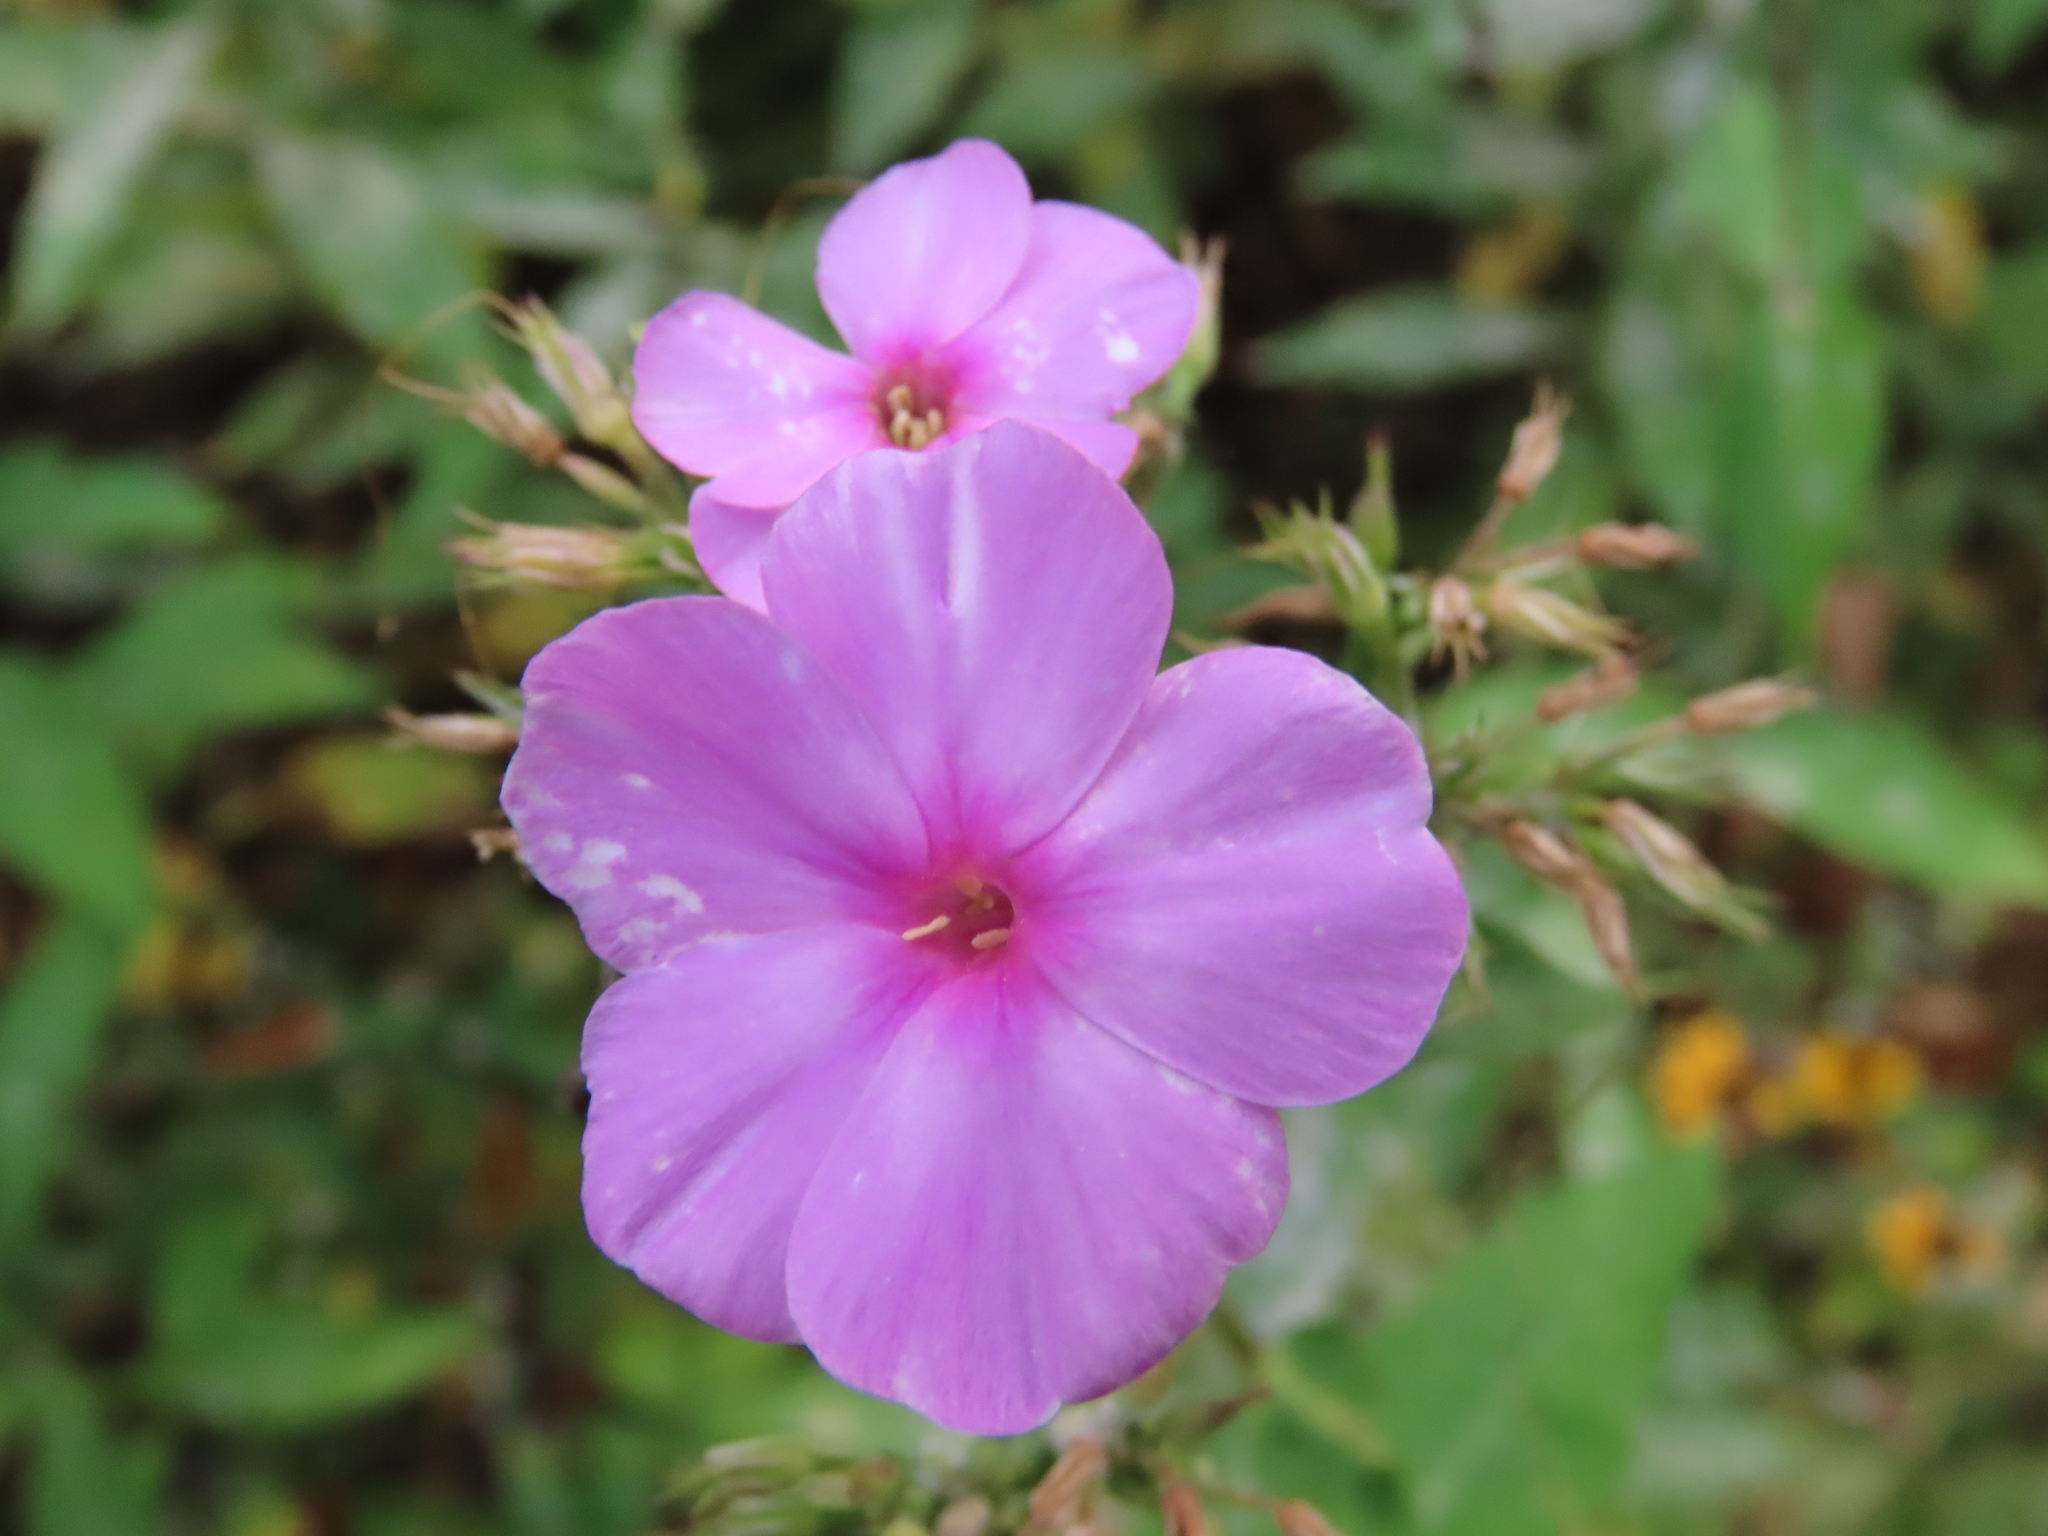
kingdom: Plantae
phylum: Tracheophyta
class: Magnoliopsida
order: Ericales
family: Polemoniaceae
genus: Phlox
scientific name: Phlox paniculata
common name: Fall phlox
